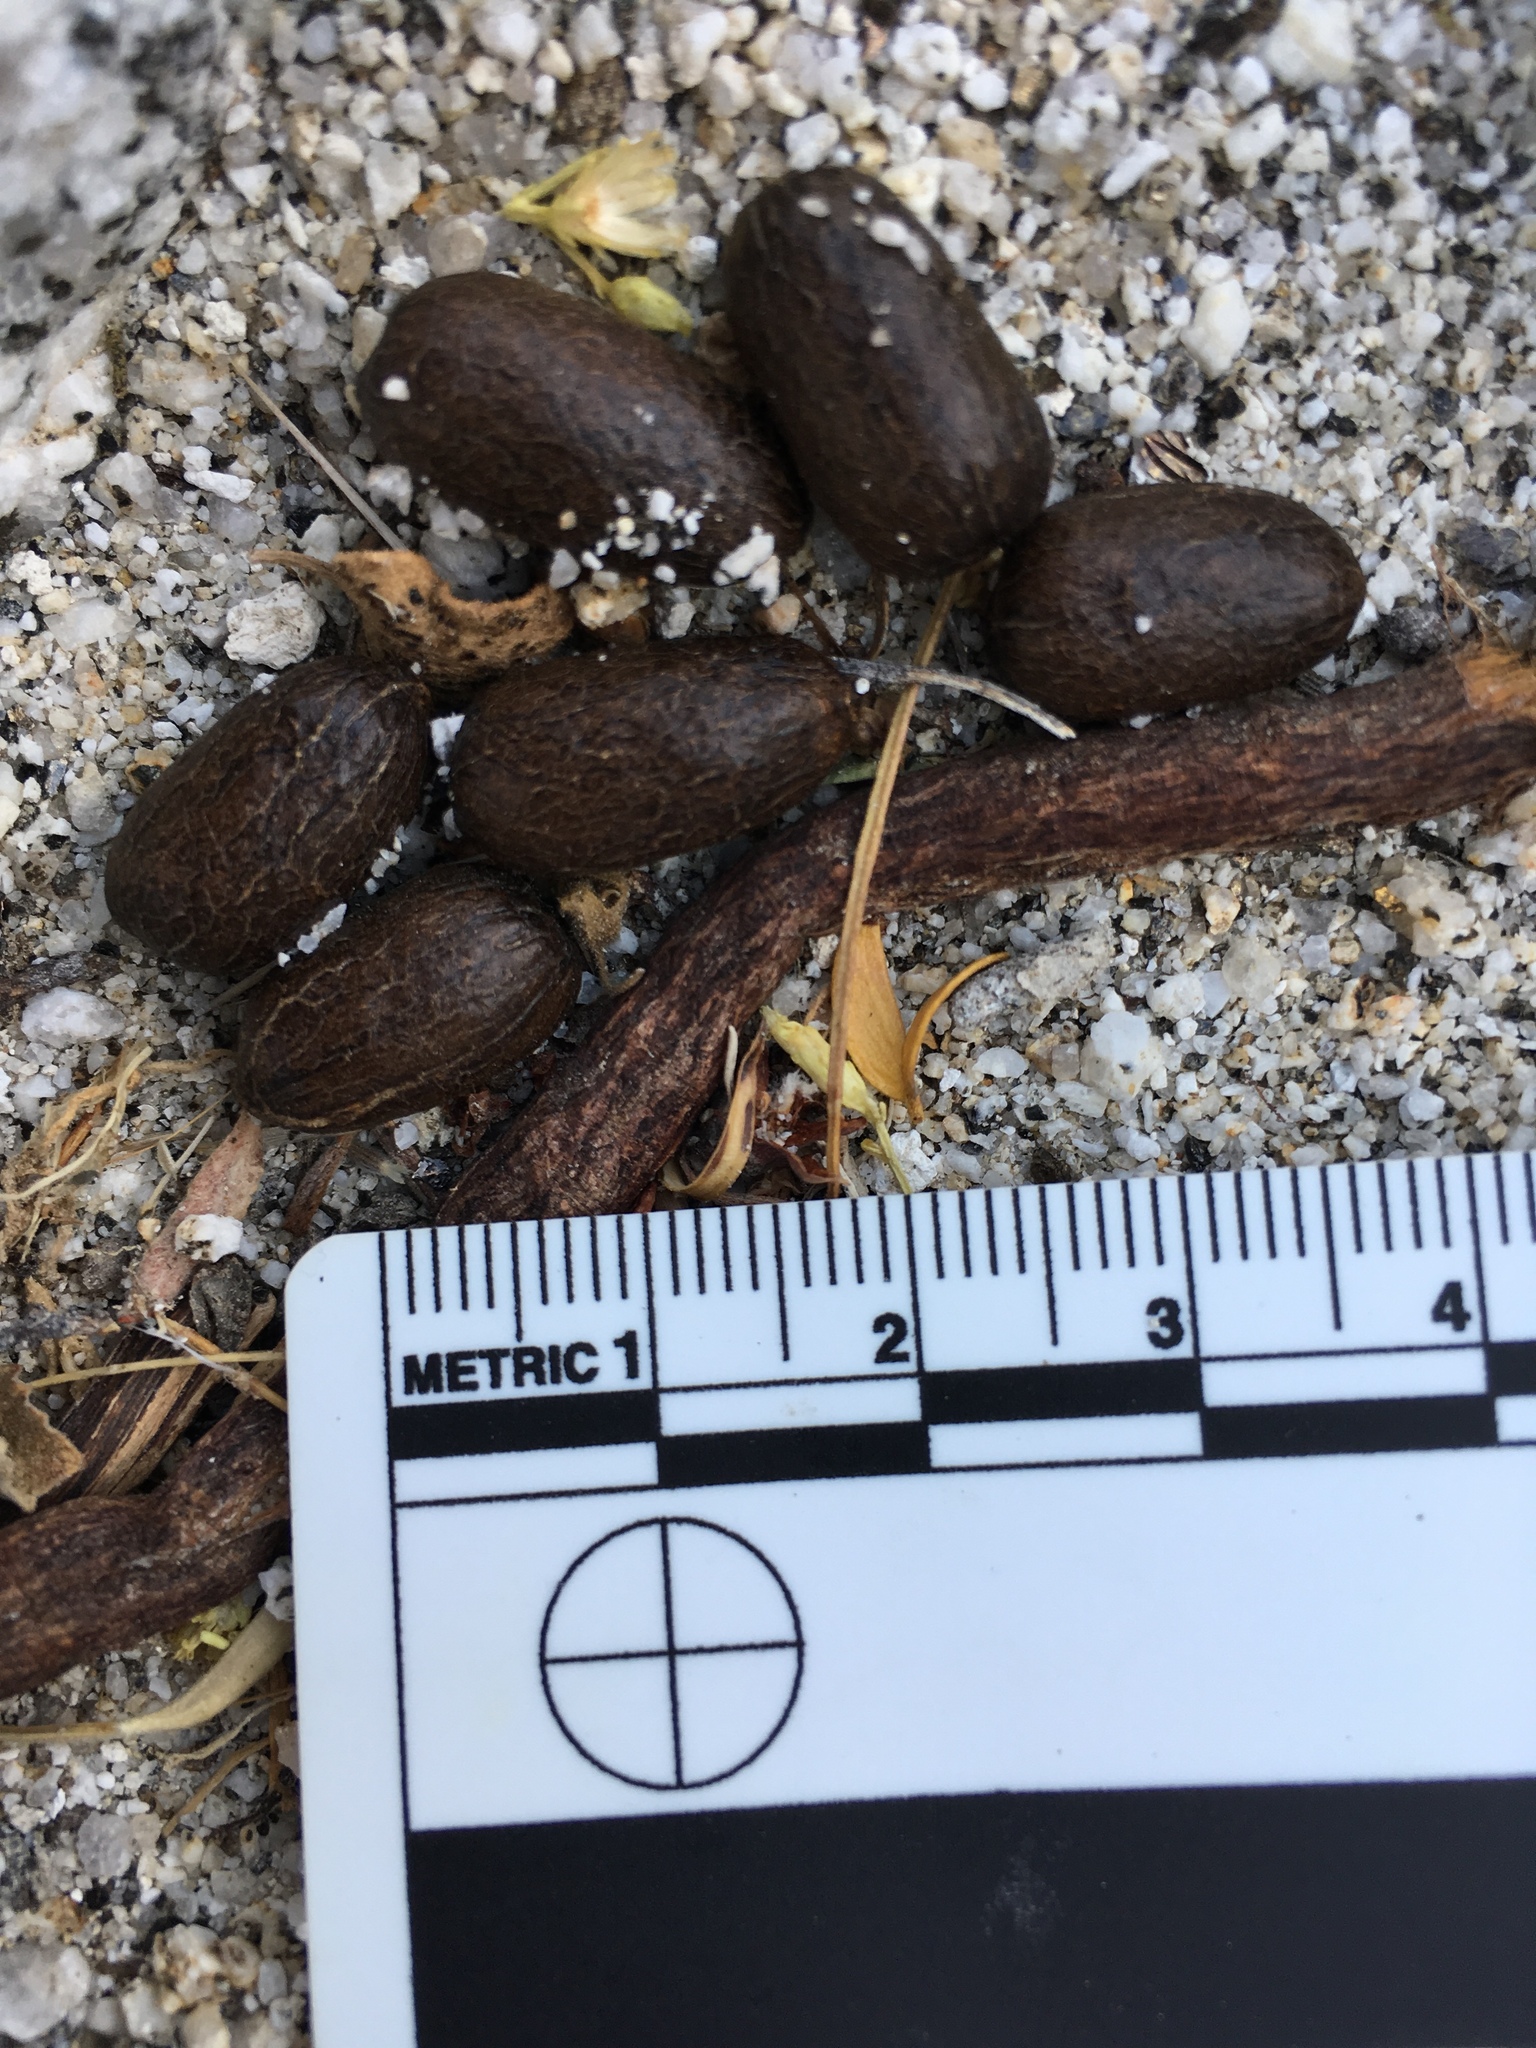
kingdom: Animalia
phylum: Chordata
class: Mammalia
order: Artiodactyla
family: Bovidae
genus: Ovis
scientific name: Ovis canadensis
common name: Bighorn sheep
